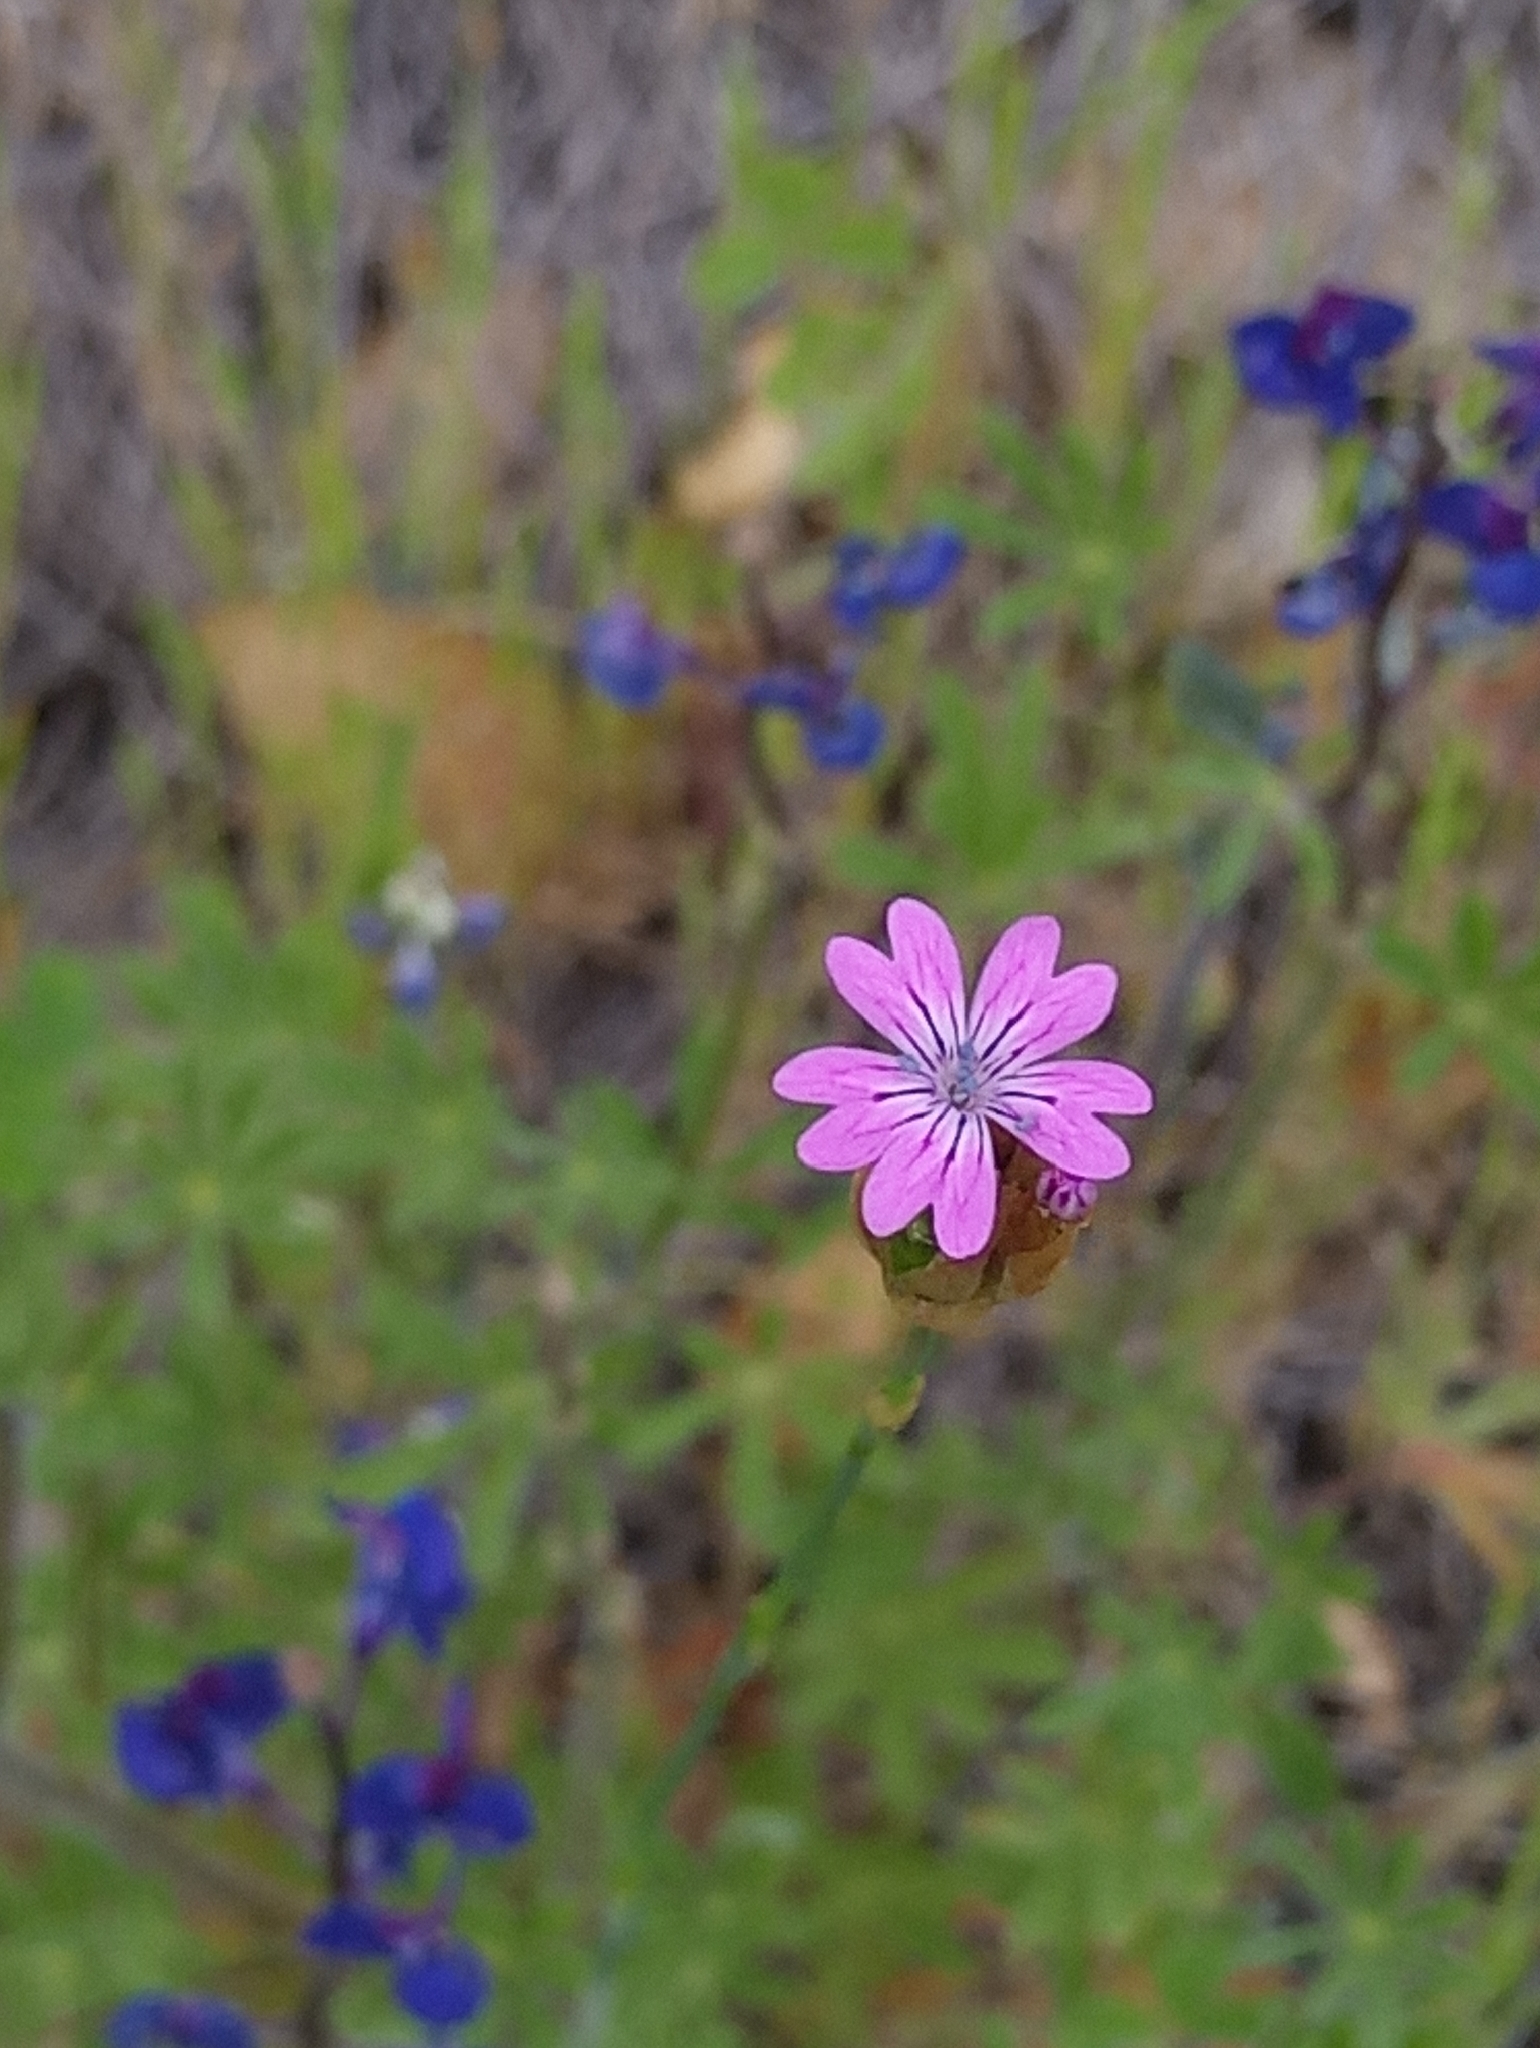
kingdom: Plantae
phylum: Tracheophyta
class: Magnoliopsida
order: Caryophyllales
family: Caryophyllaceae
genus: Petrorhagia
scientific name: Petrorhagia dubia
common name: Hairypink
